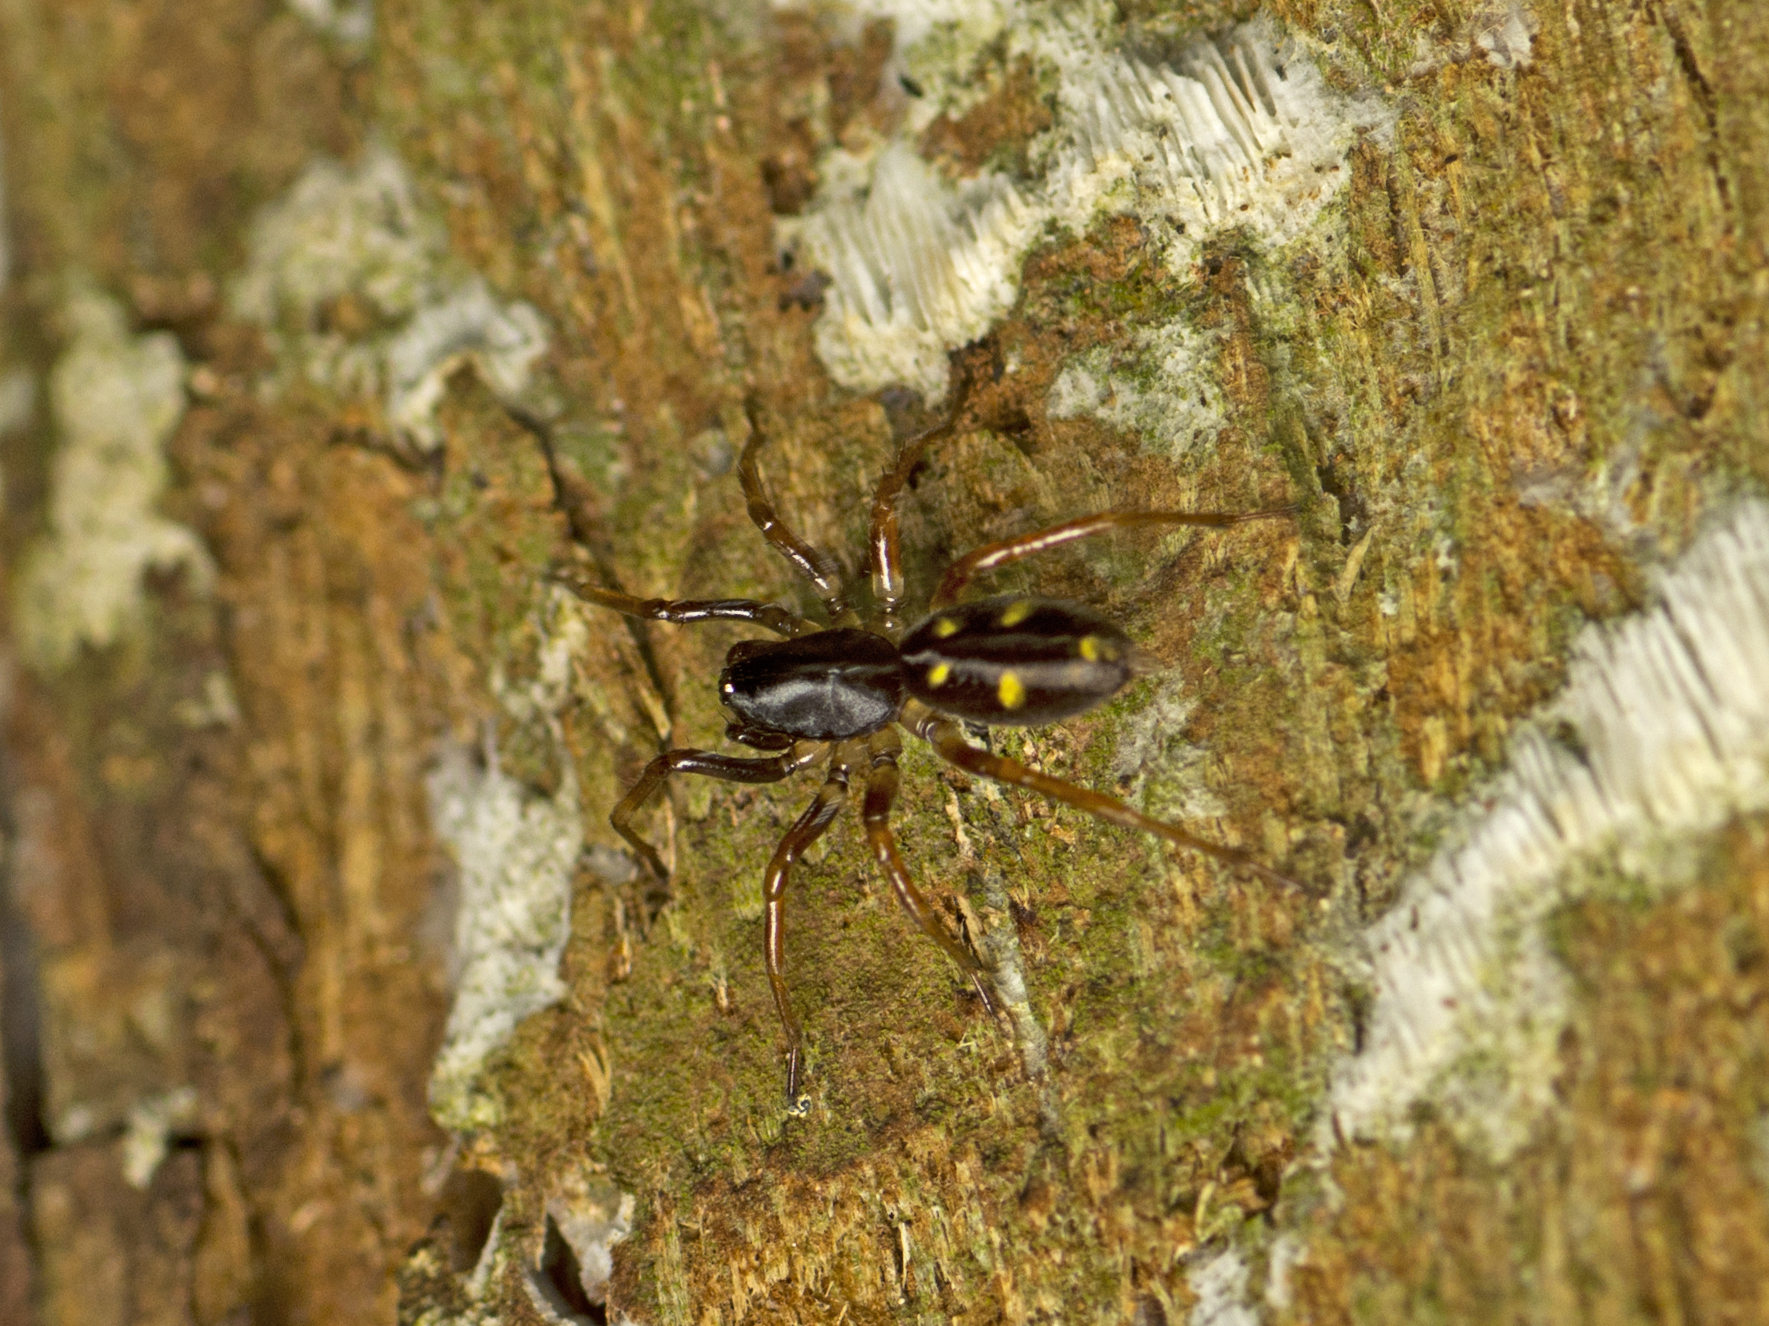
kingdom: Animalia
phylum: Arthropoda
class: Arachnida
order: Araneae
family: Zodariidae
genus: Euasteron
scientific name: Euasteron enterprise
